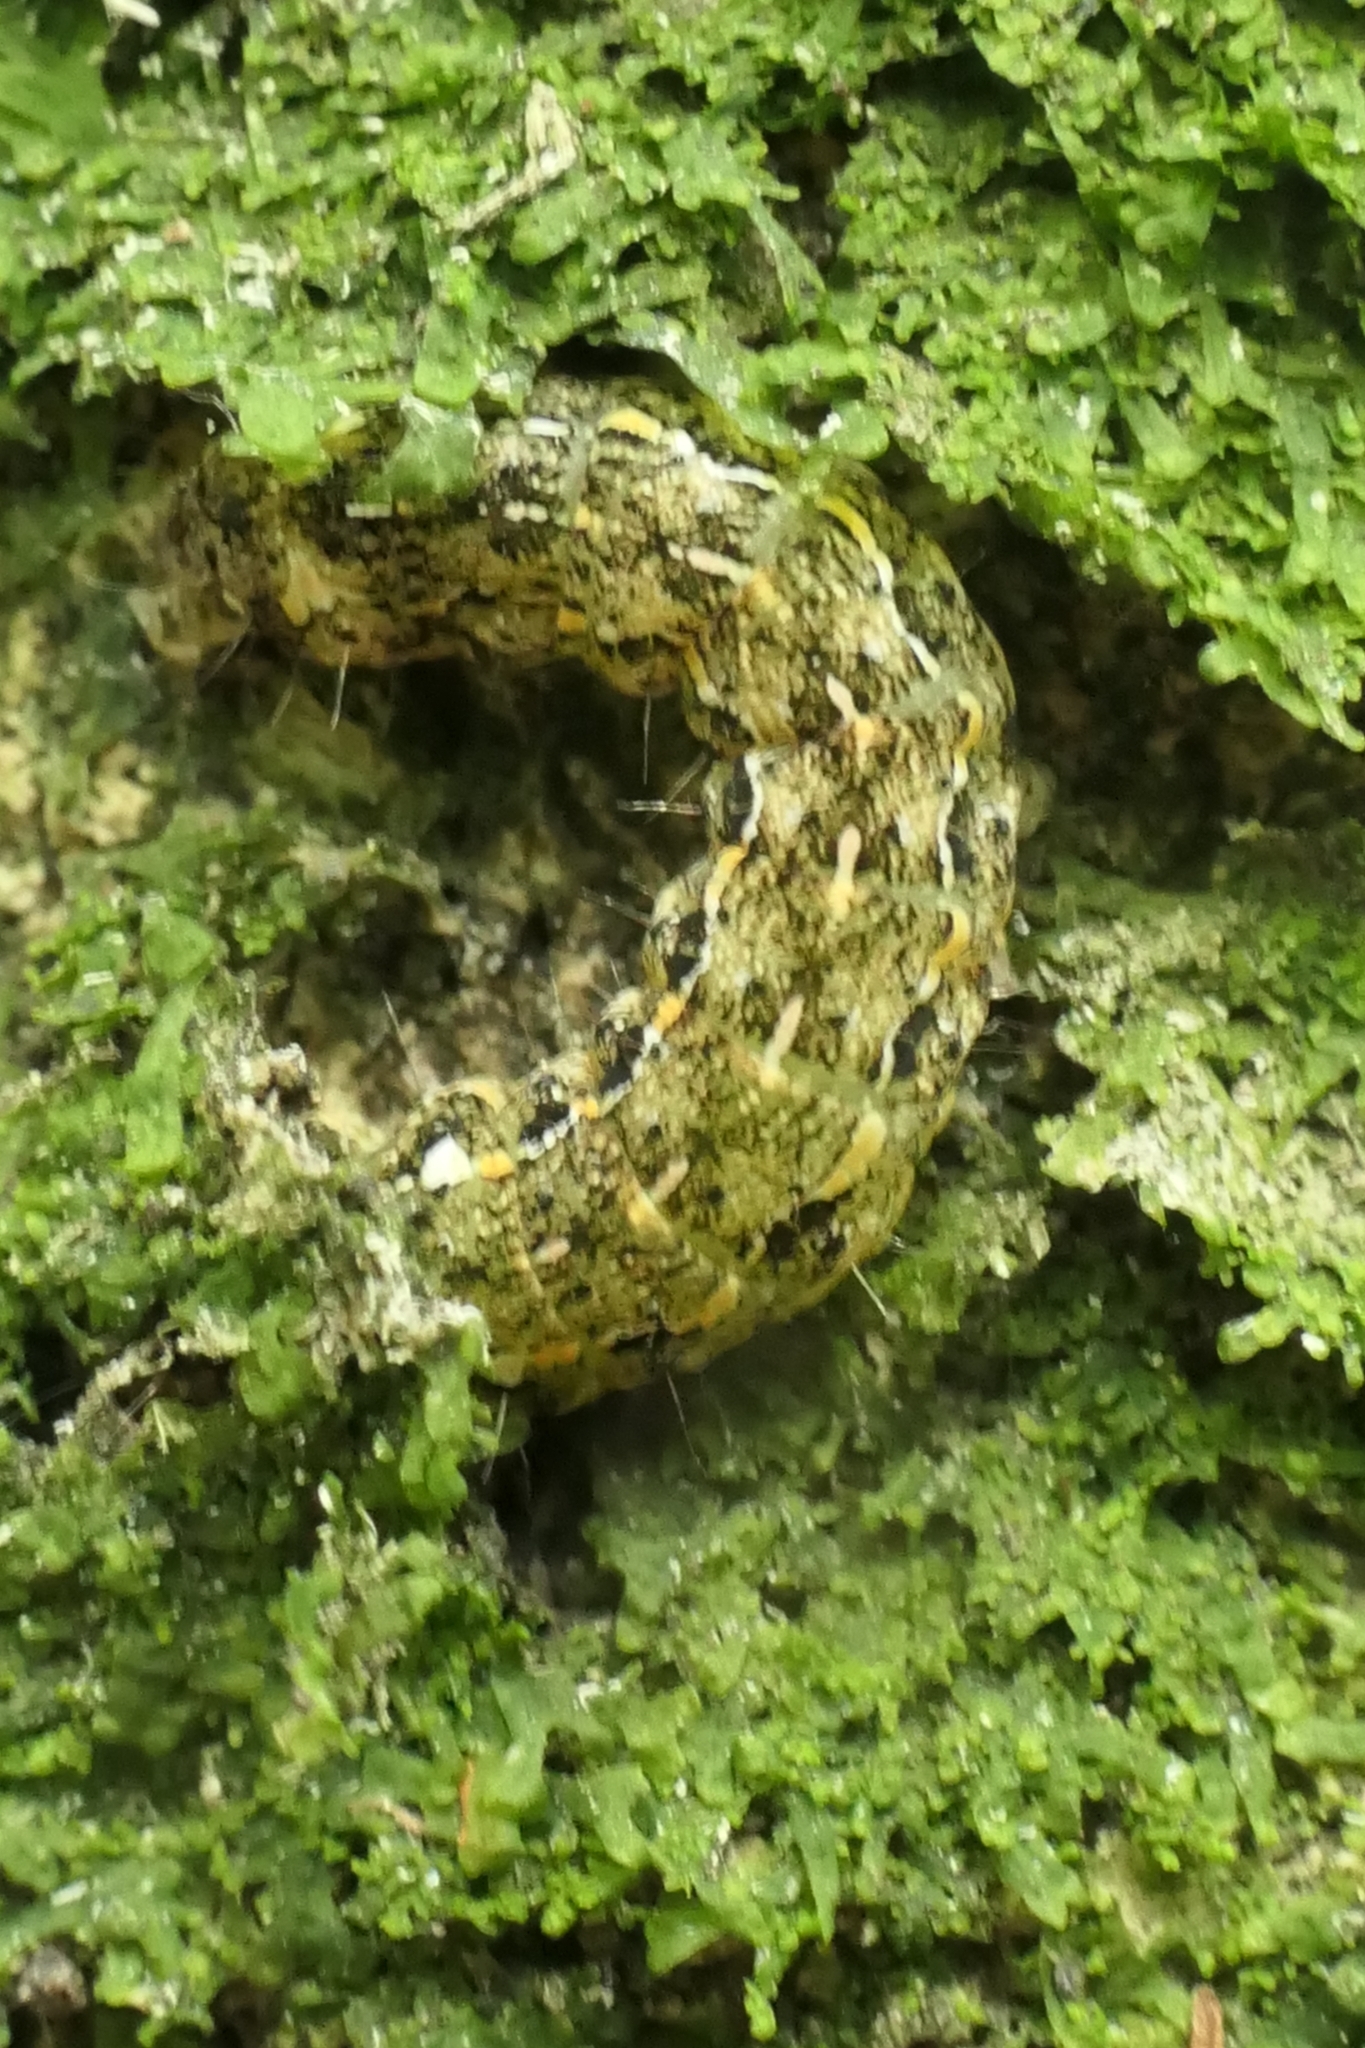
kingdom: Animalia
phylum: Arthropoda
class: Insecta
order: Lepidoptera
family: Noctuidae
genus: Feredayia
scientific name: Feredayia grammosa
